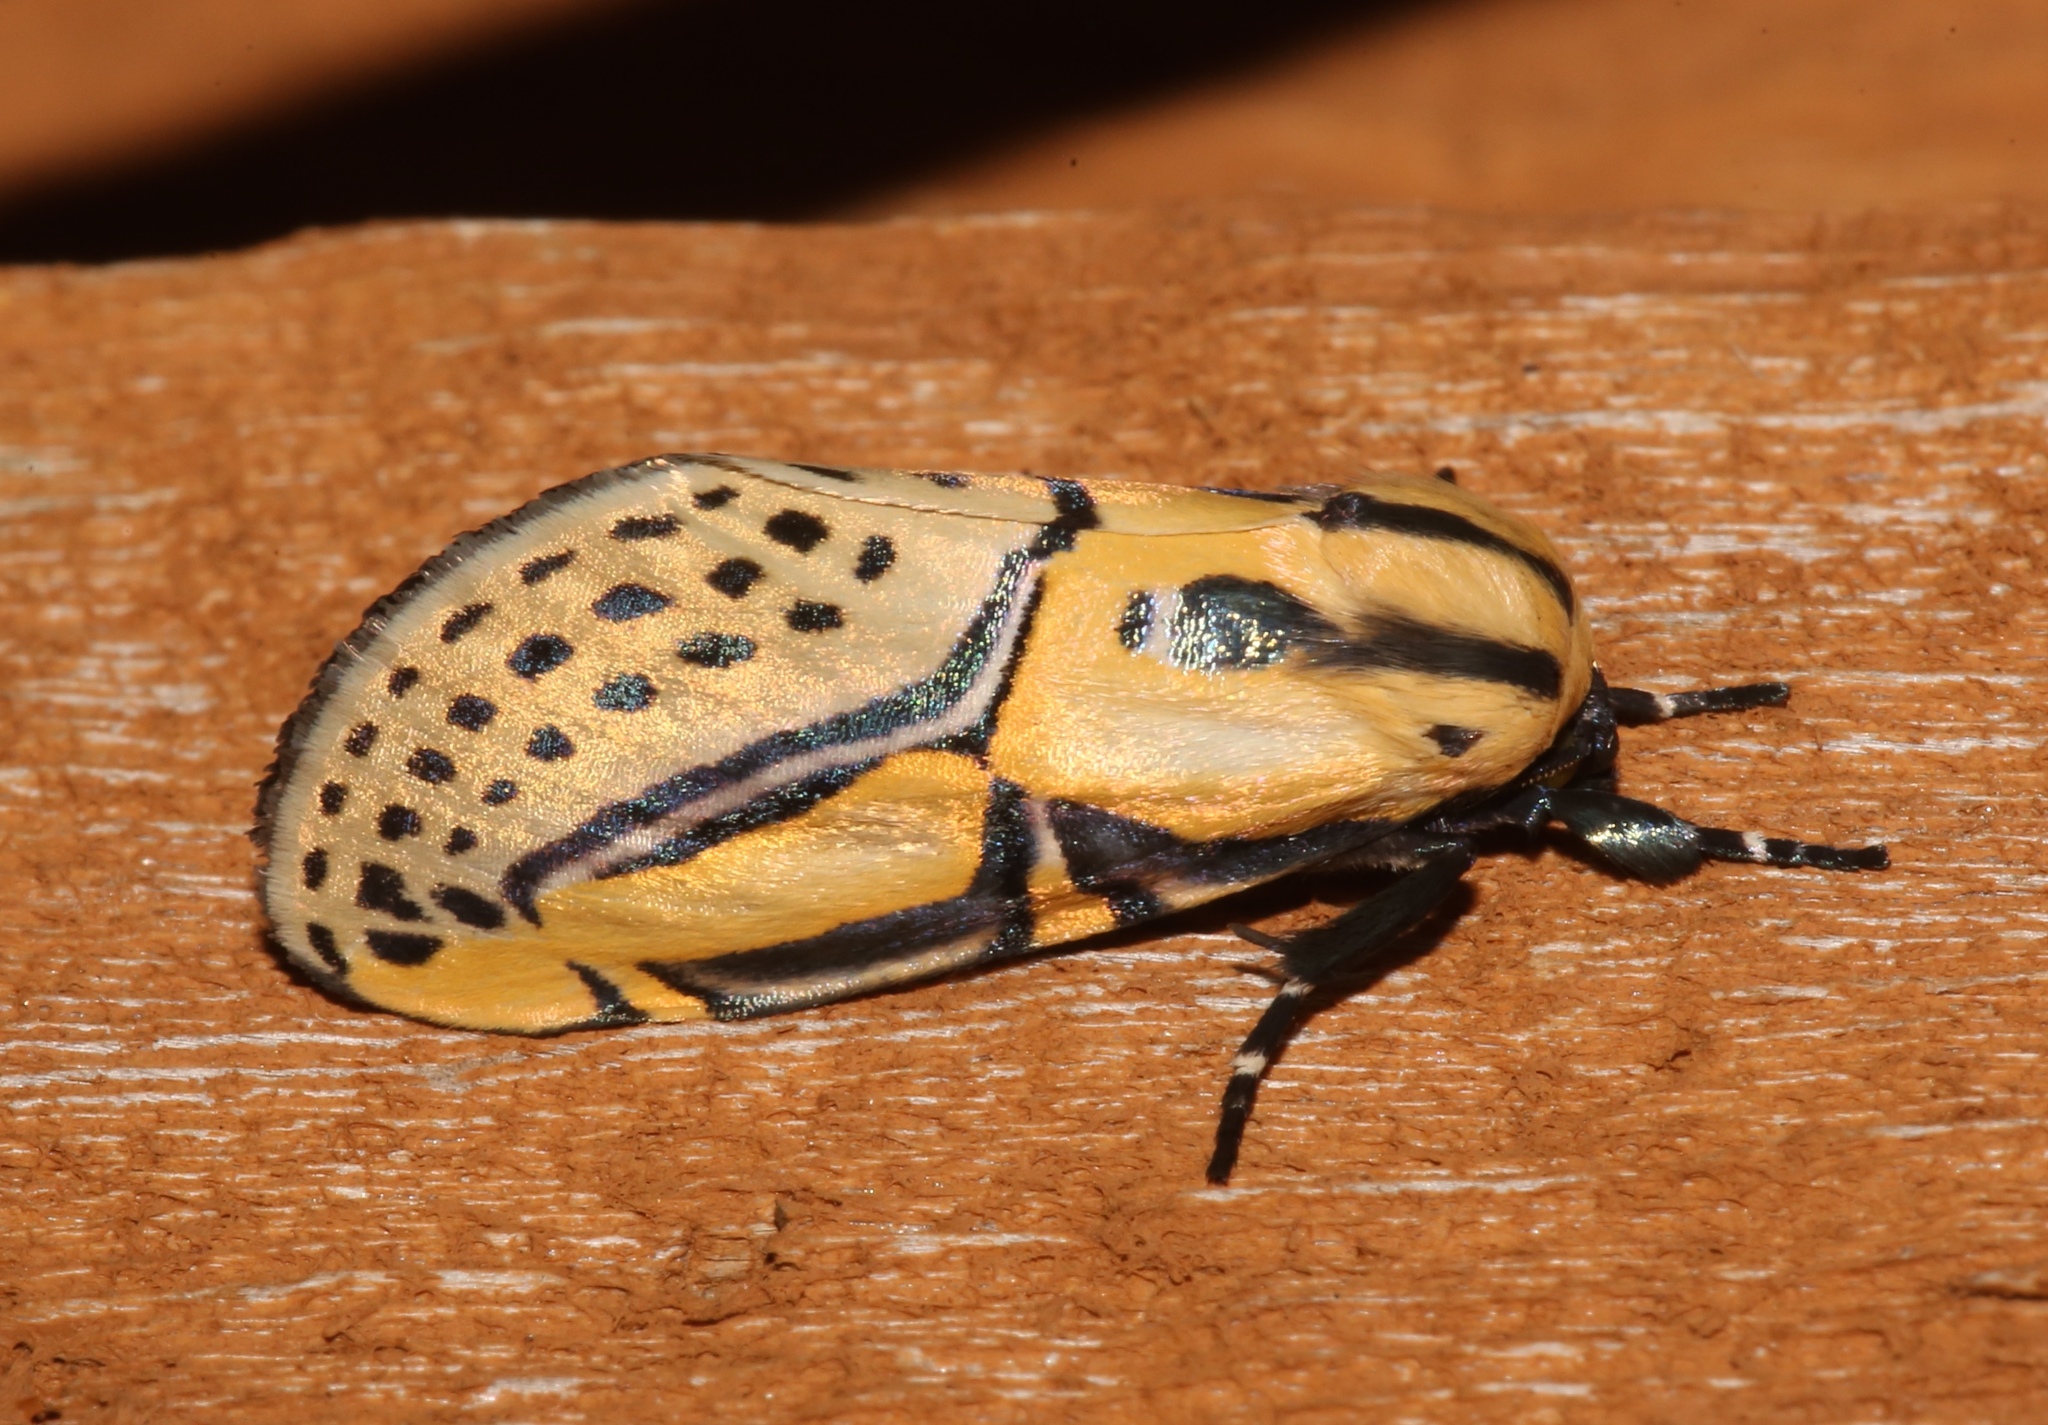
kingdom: Animalia
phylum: Arthropoda
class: Insecta
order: Lepidoptera
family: Erebidae
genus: Diphthera
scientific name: Diphthera festiva
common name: Hieroglyphic moth
